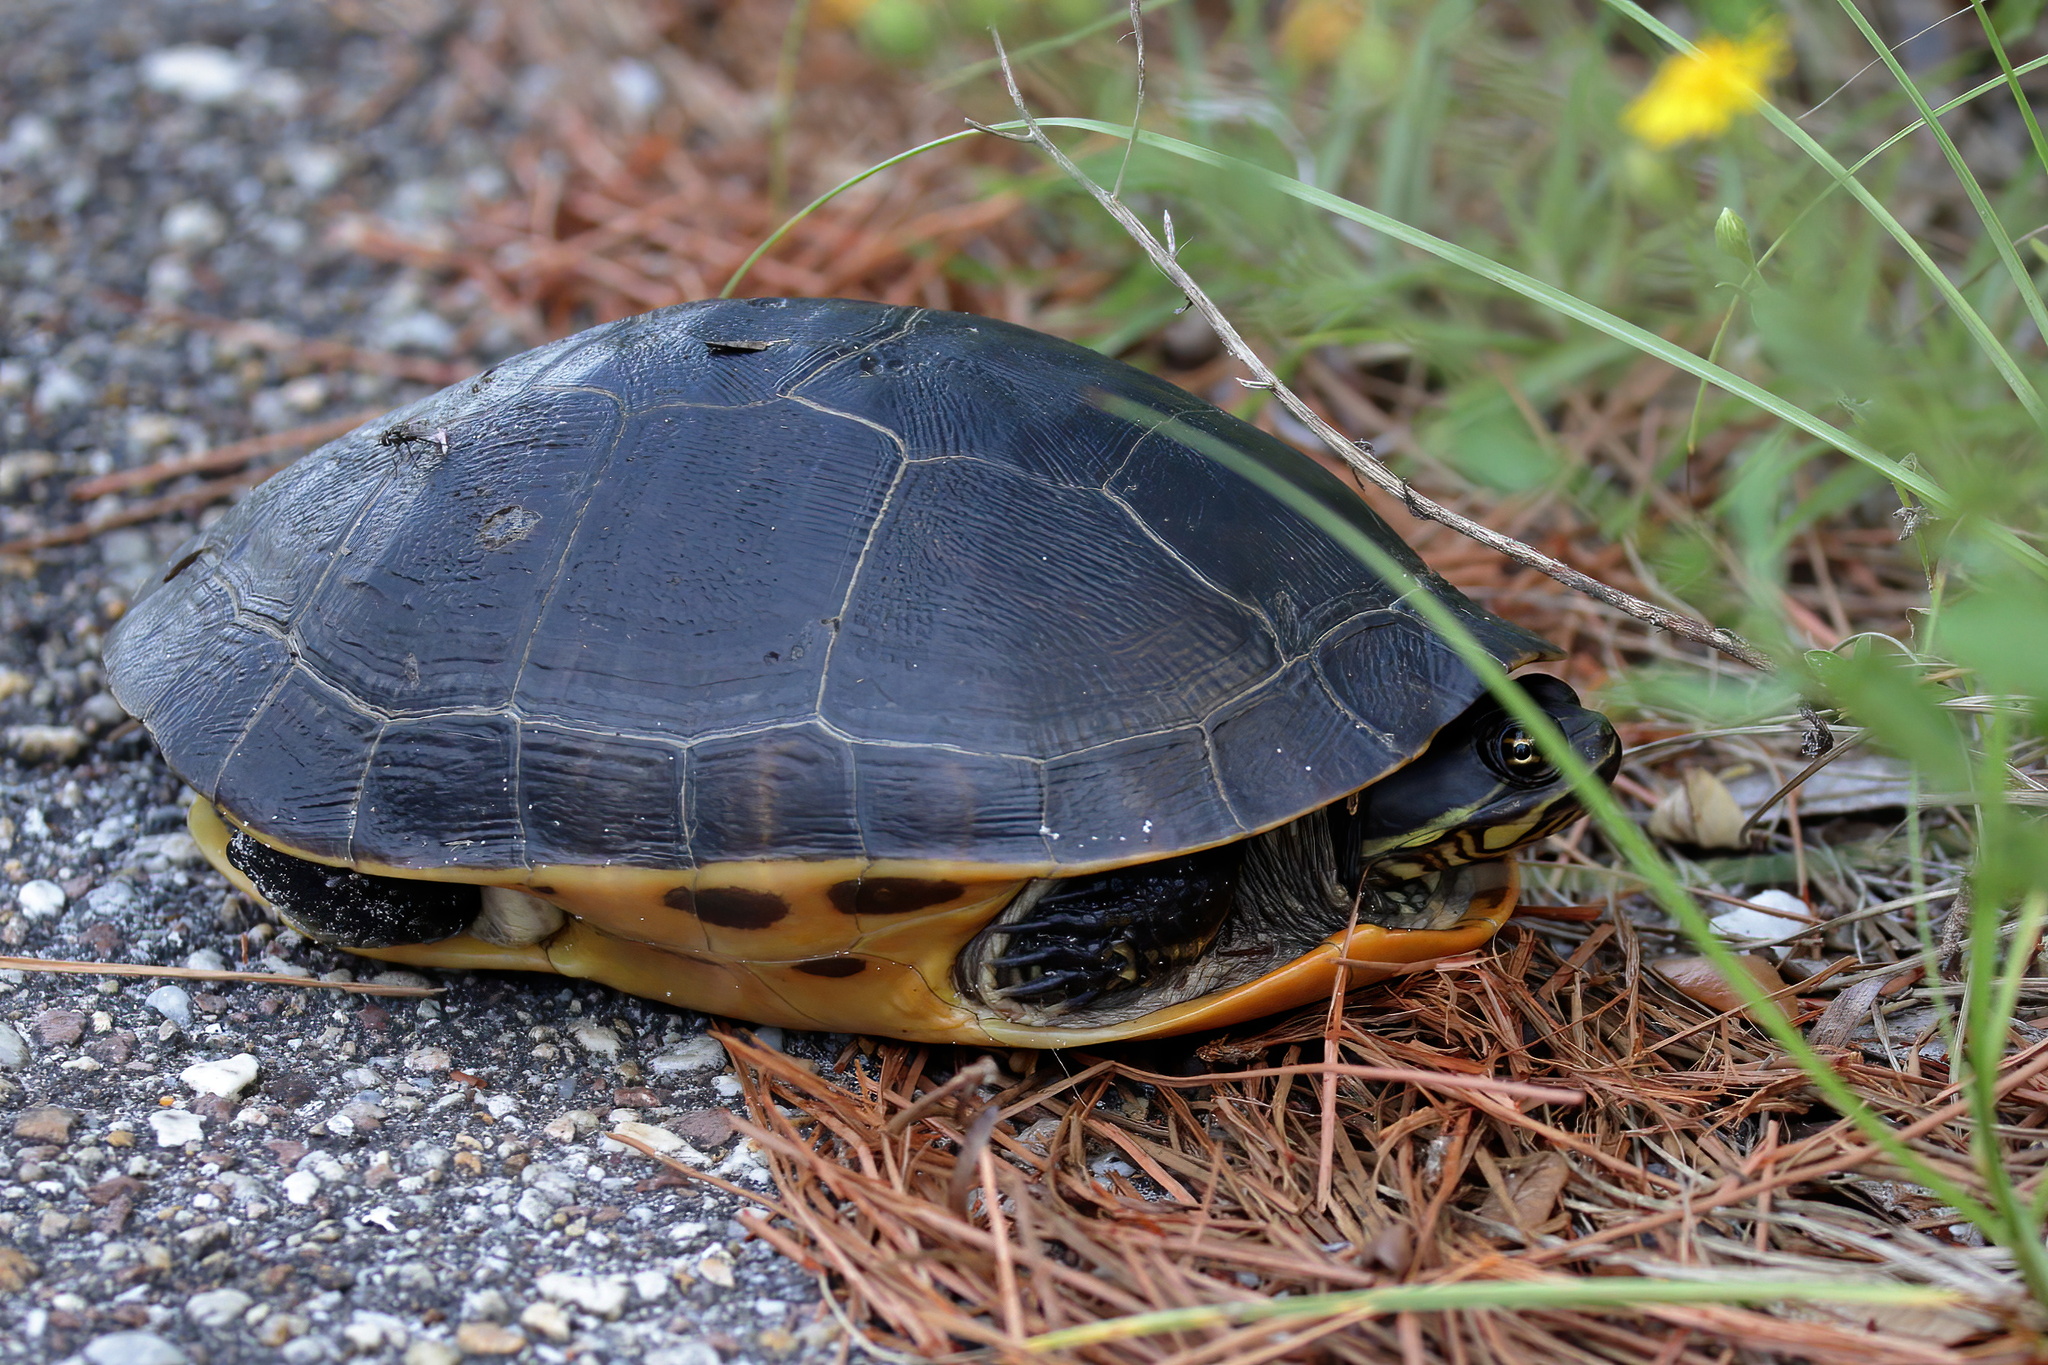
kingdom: Animalia
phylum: Chordata
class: Testudines
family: Emydidae
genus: Deirochelys
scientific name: Deirochelys reticularia
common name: Chicken turtle
